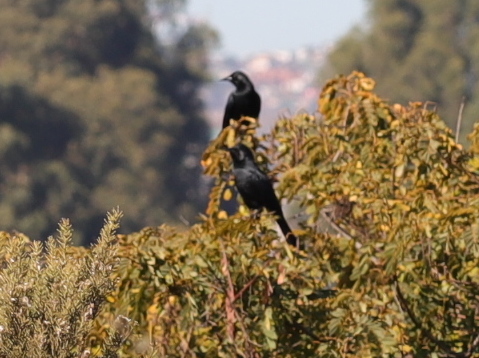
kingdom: Animalia
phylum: Chordata
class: Aves
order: Passeriformes
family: Icteridae
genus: Curaeus
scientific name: Curaeus curaeus
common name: Austral blackbird
